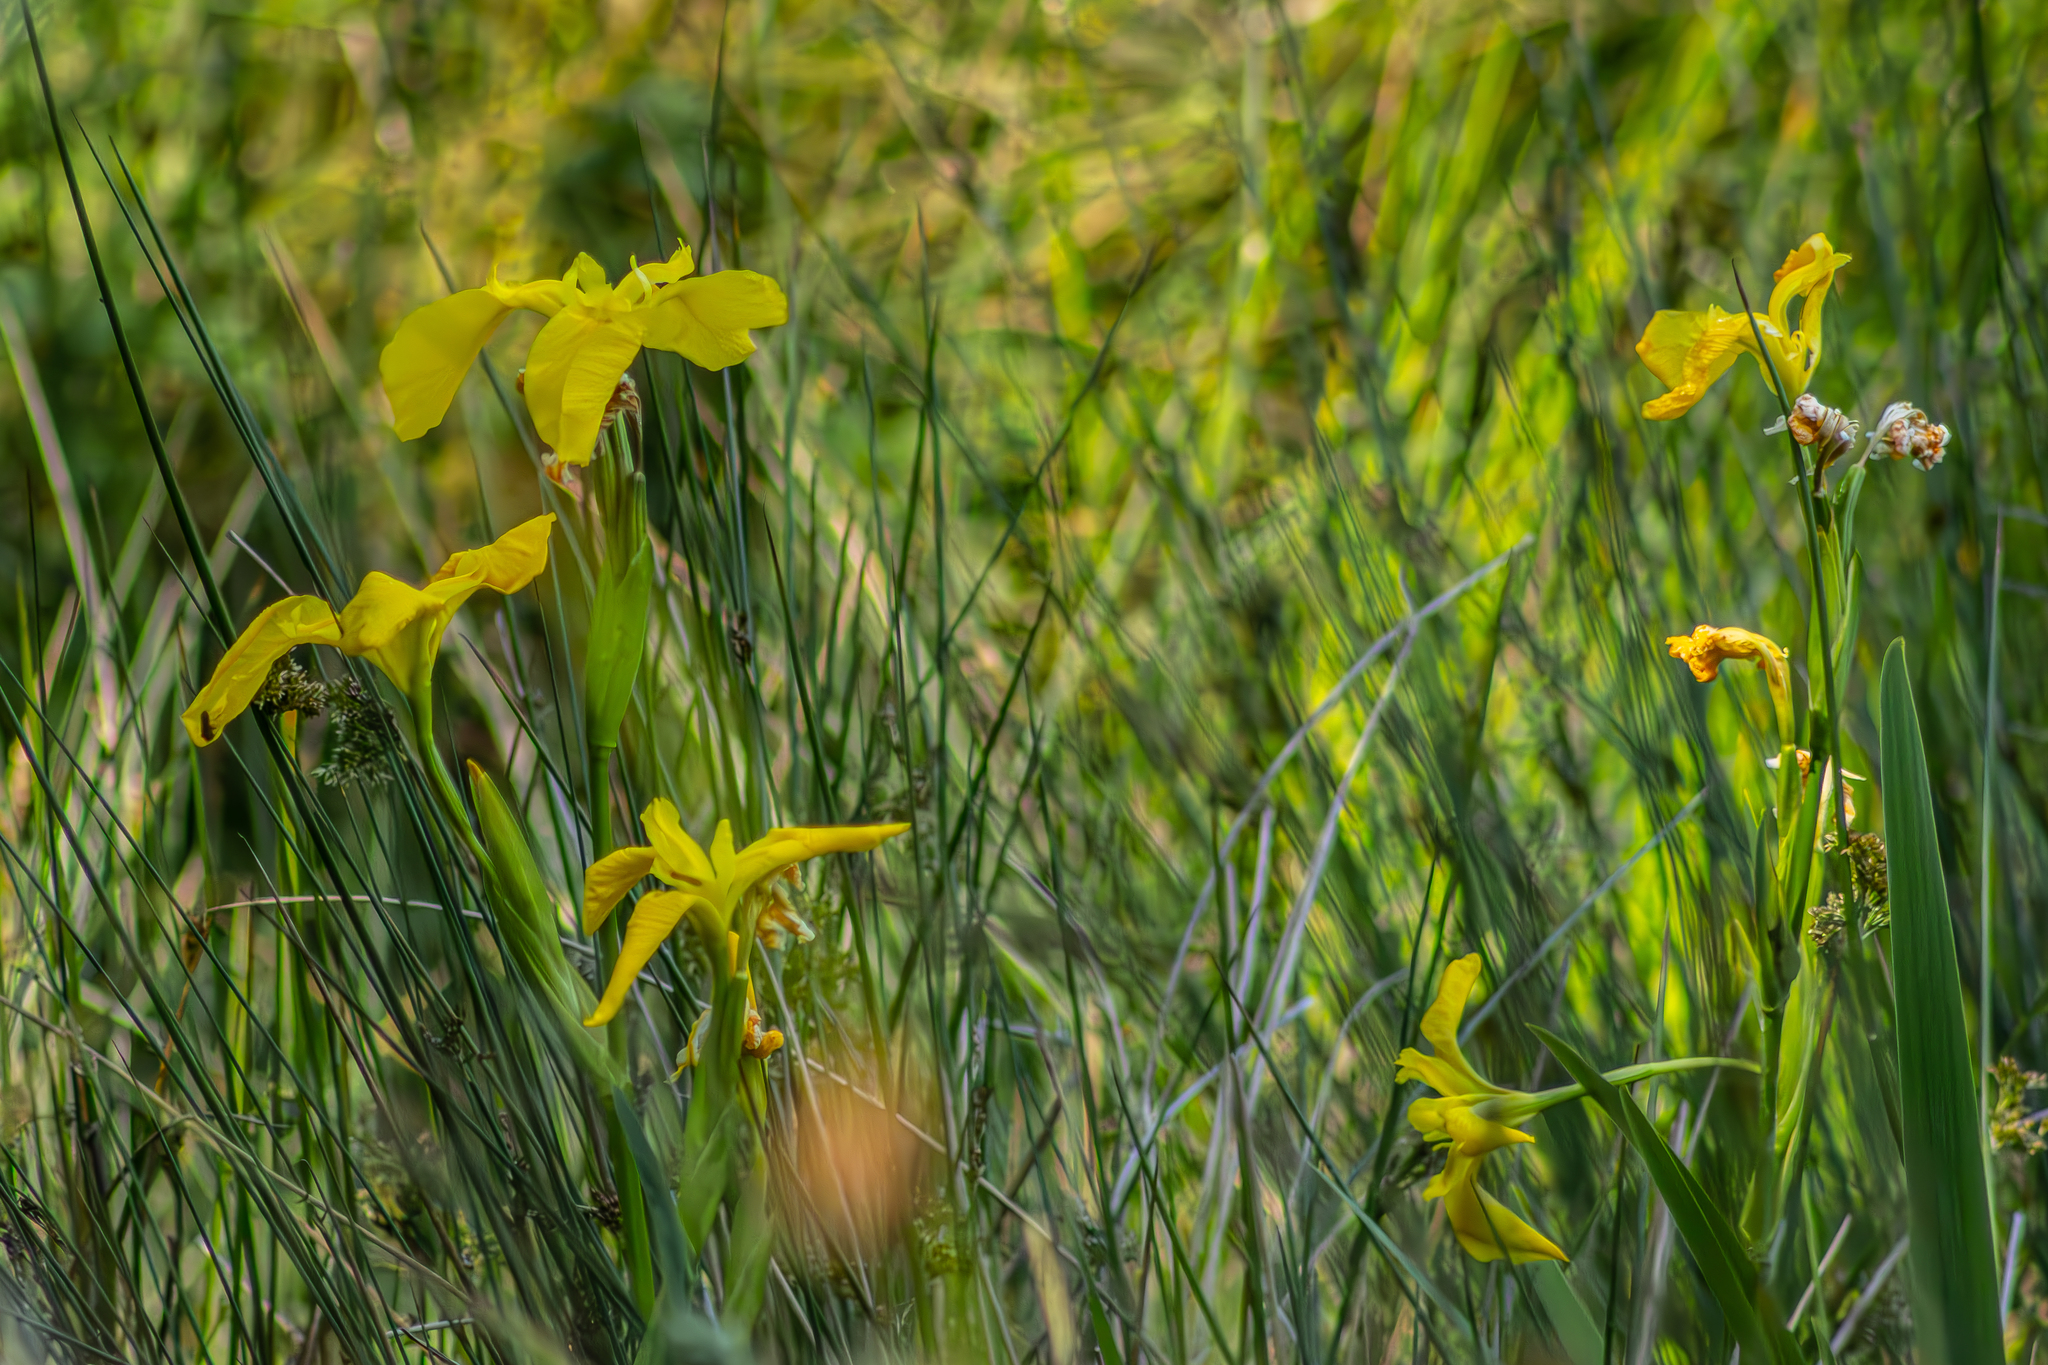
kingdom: Plantae
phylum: Tracheophyta
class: Liliopsida
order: Asparagales
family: Iridaceae
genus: Iris
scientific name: Iris pseudacorus
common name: Yellow flag
